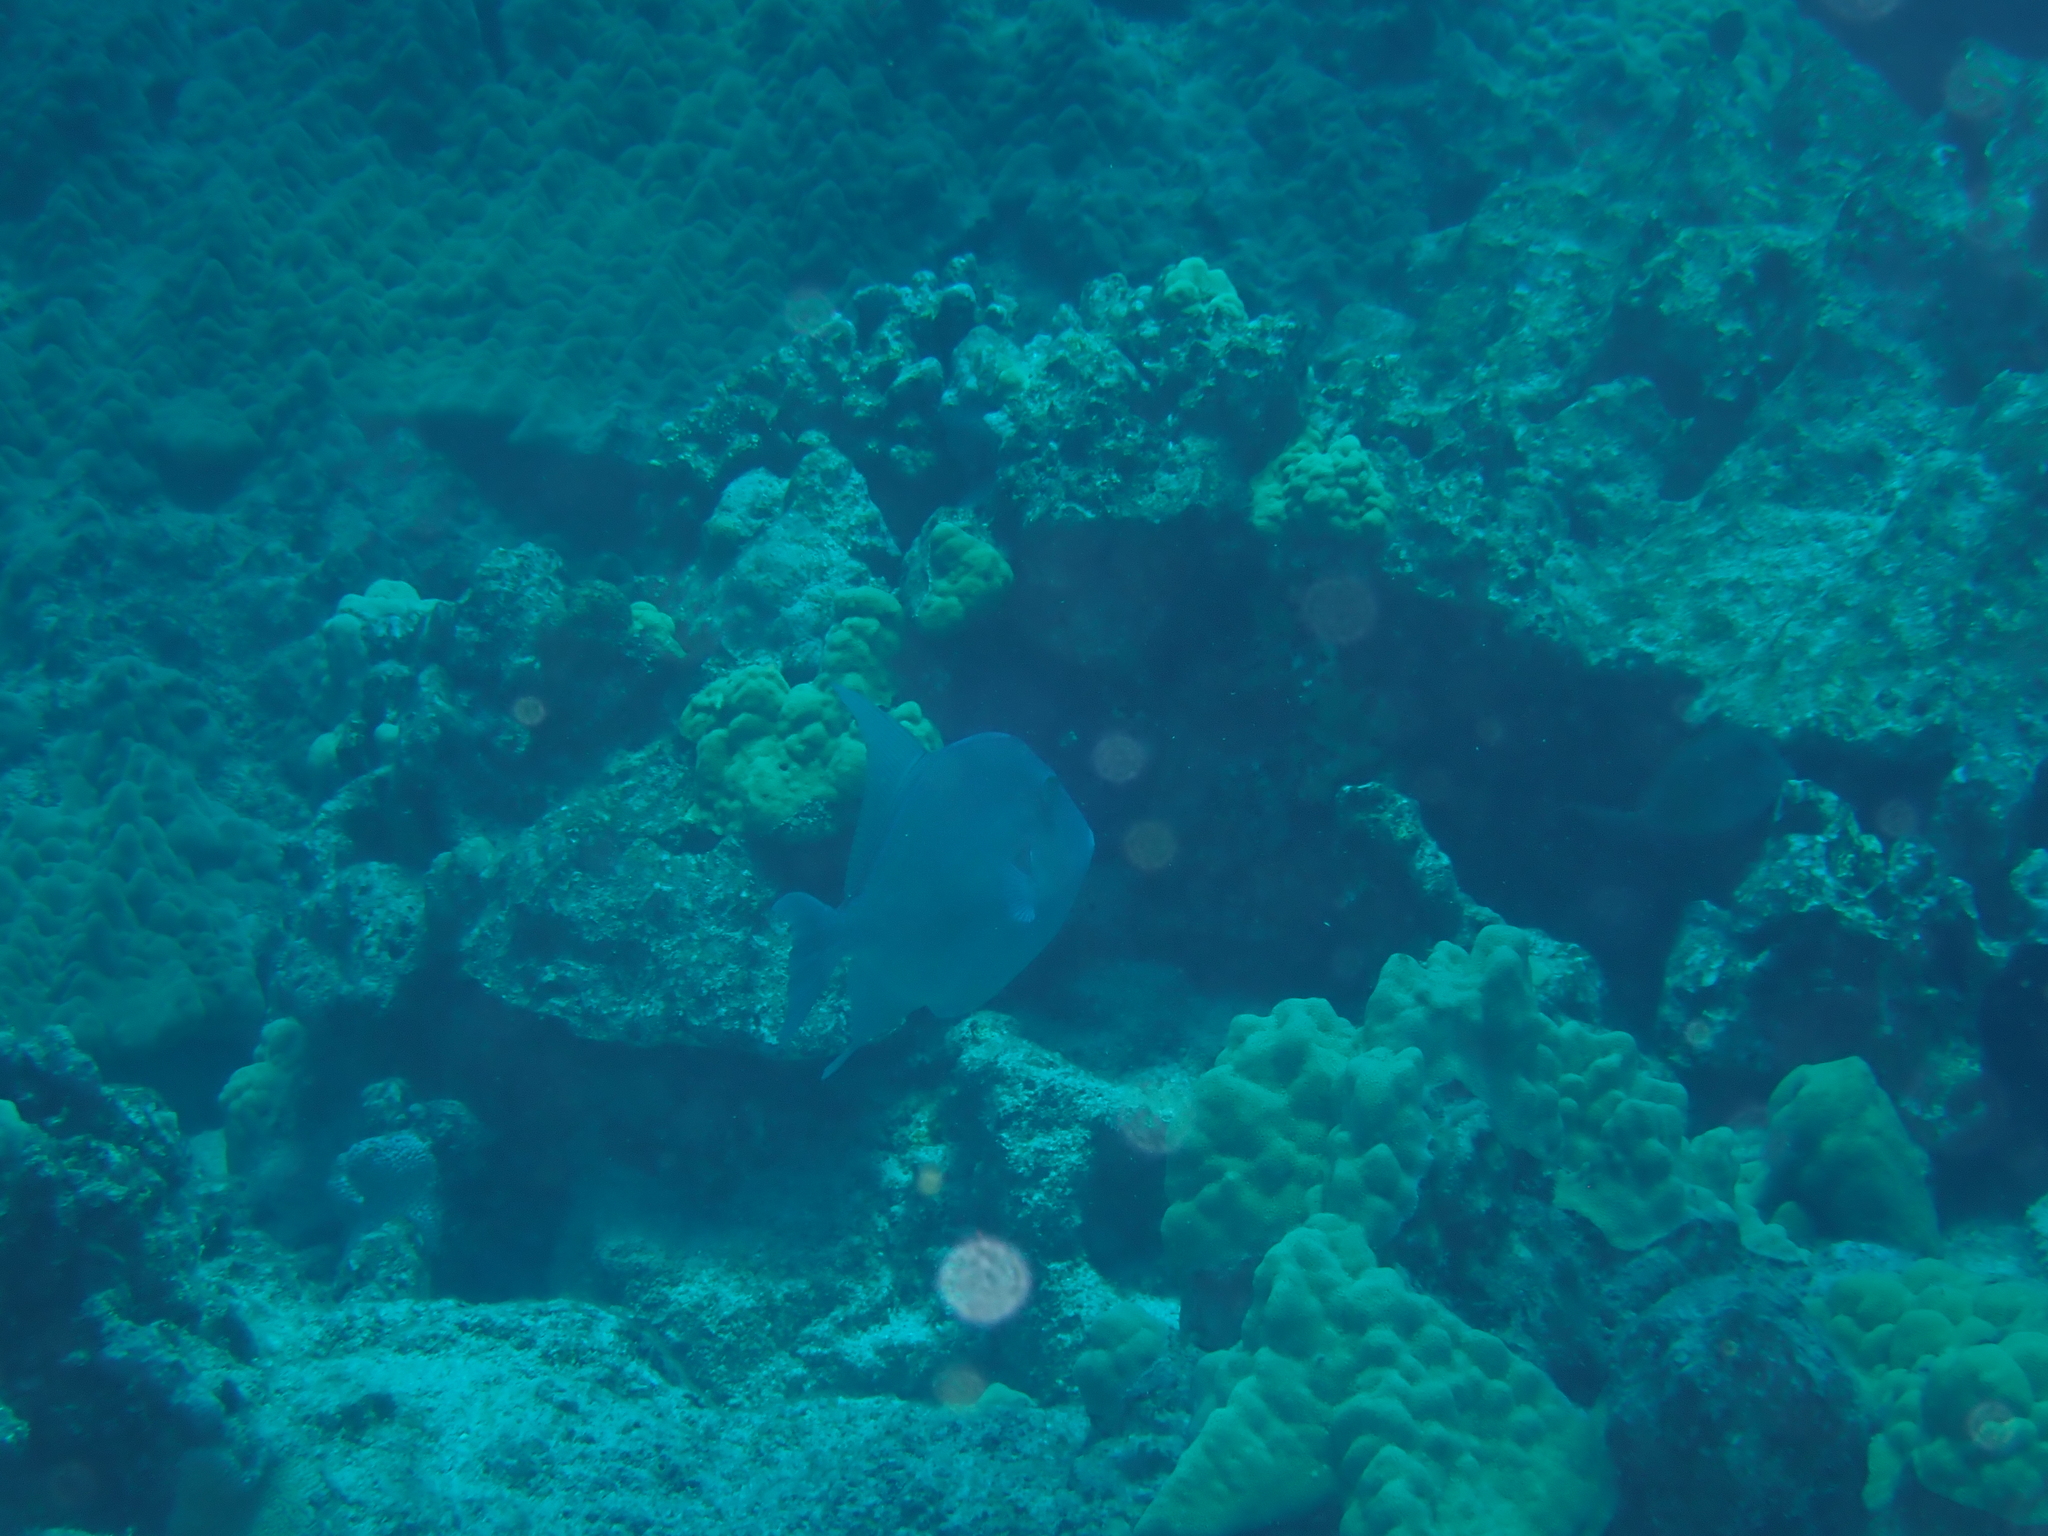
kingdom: Animalia
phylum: Chordata
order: Tetraodontiformes
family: Balistidae
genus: Balistes
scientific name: Balistes polylepis
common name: Finescale triggerfish
